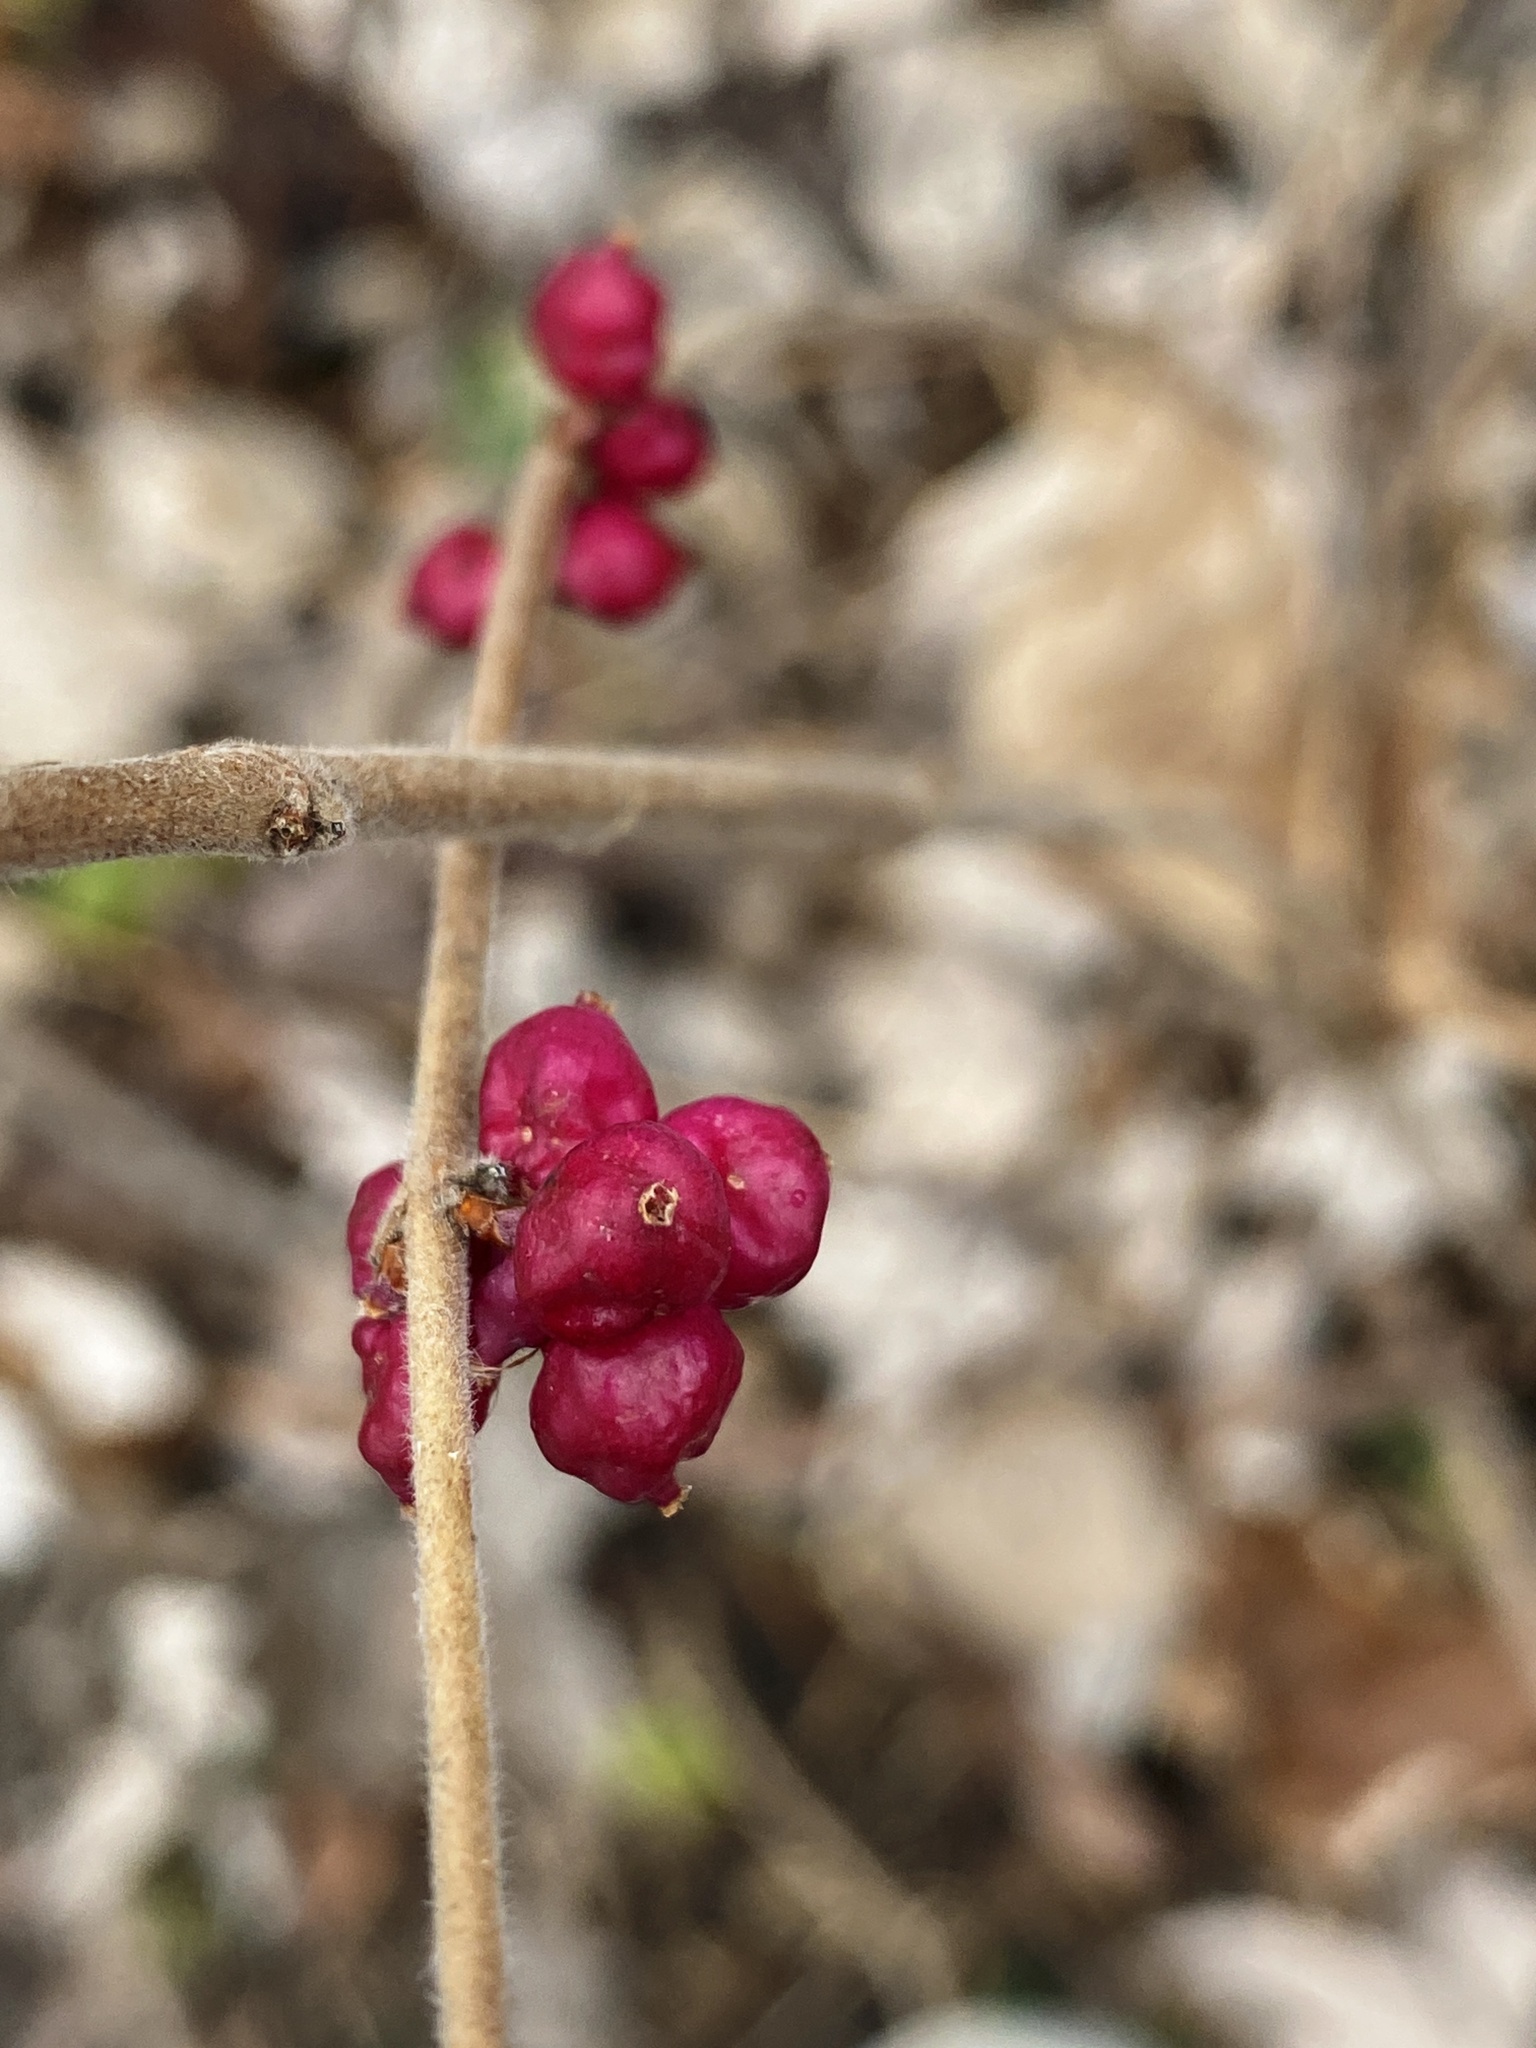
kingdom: Plantae
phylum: Tracheophyta
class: Magnoliopsida
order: Dipsacales
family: Caprifoliaceae
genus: Symphoricarpos
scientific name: Symphoricarpos orbiculatus
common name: Coralberry
